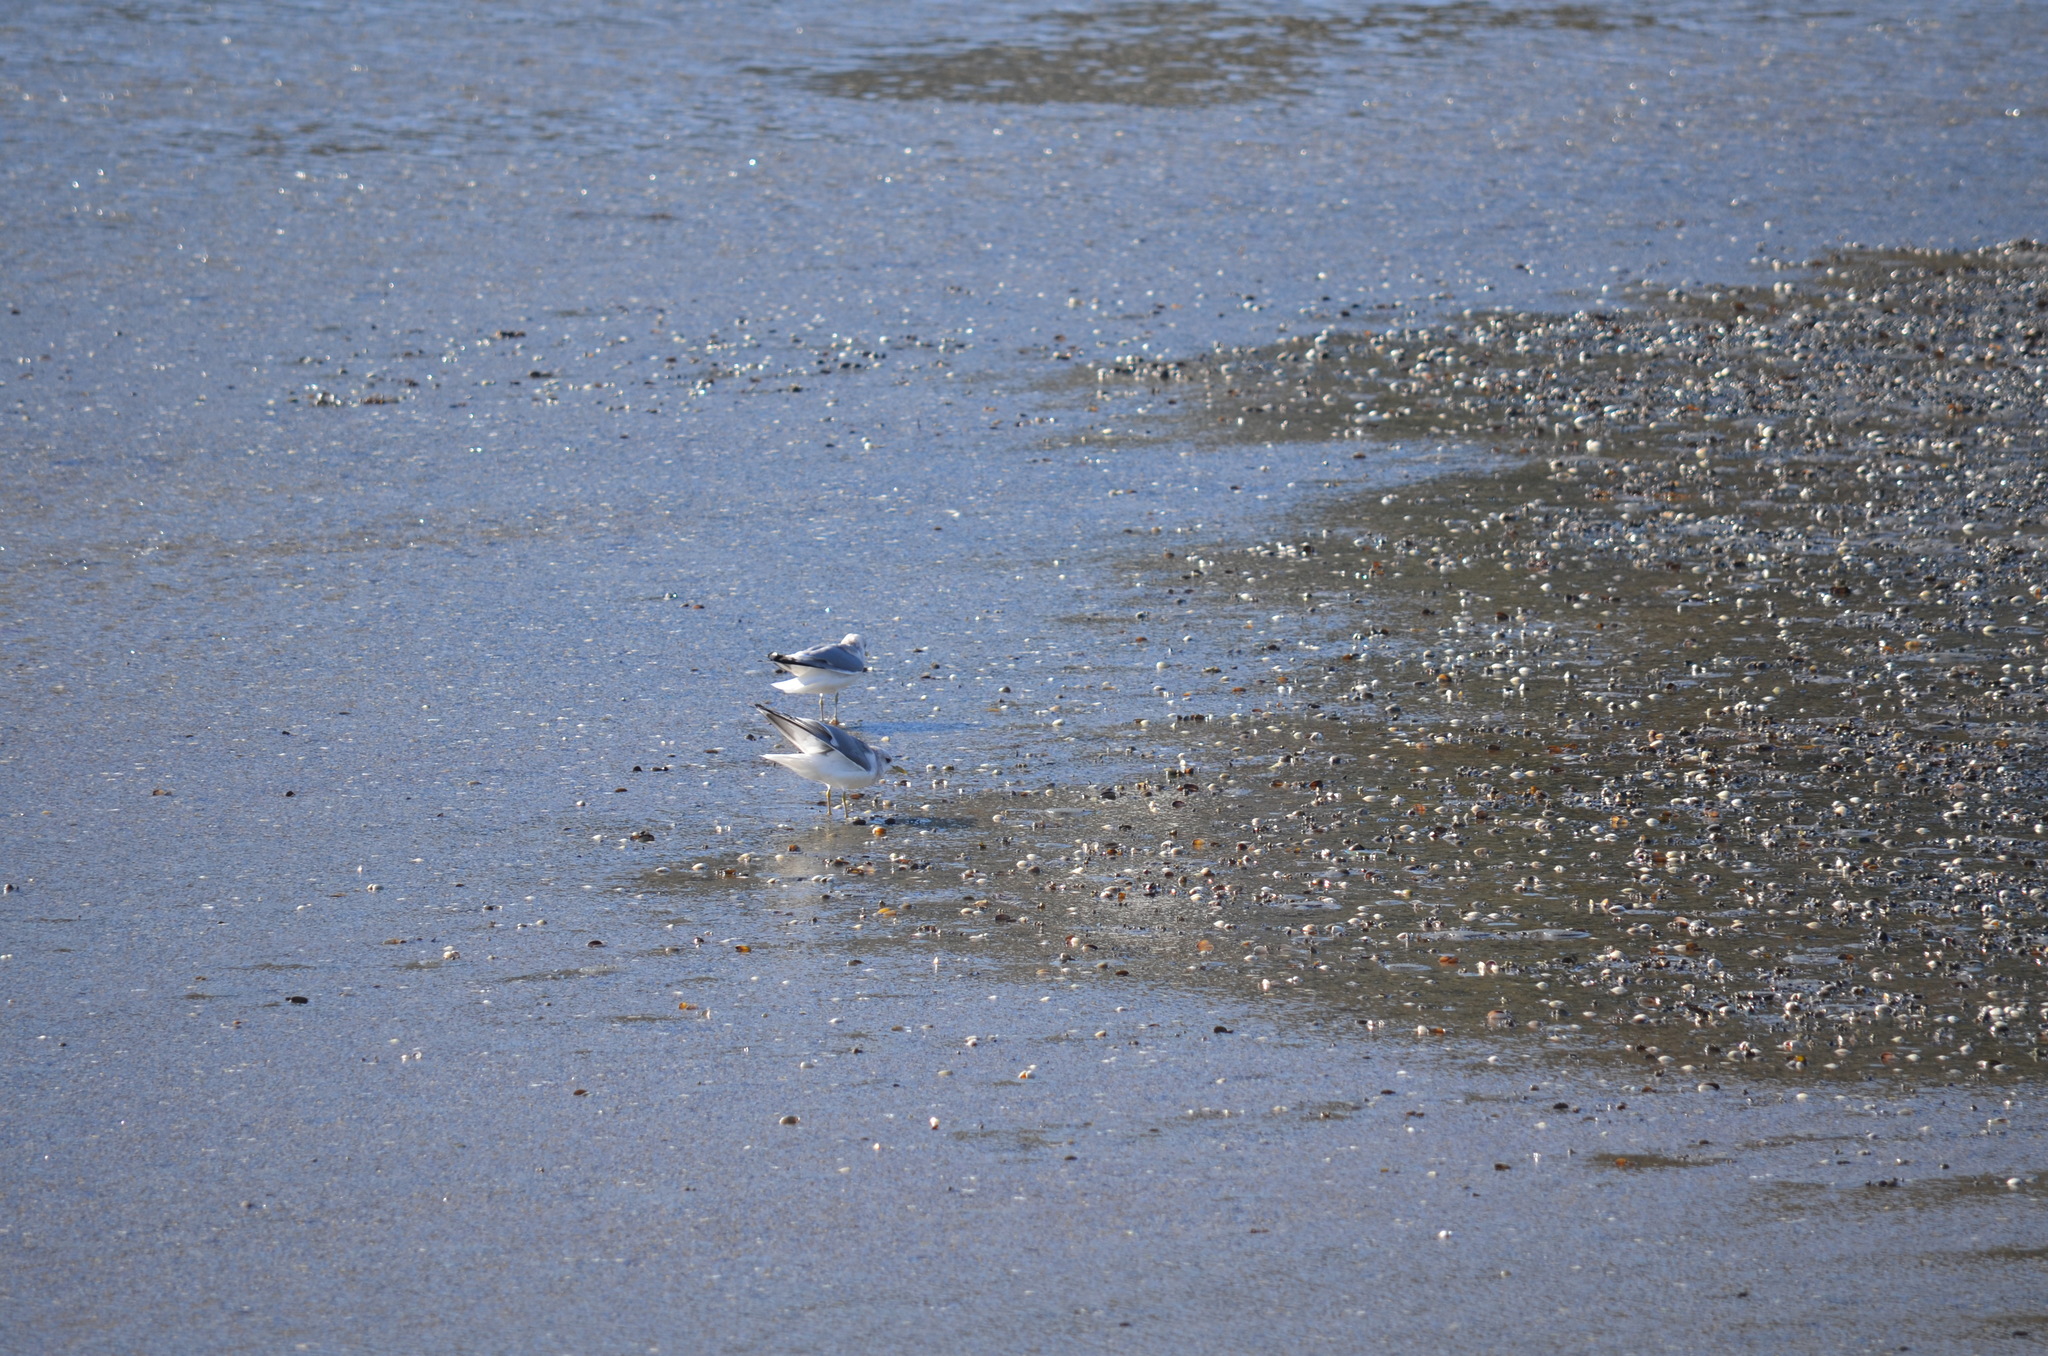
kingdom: Animalia
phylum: Chordata
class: Aves
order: Charadriiformes
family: Laridae
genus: Larus
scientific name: Larus brachyrhynchus
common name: Short-billed gull
